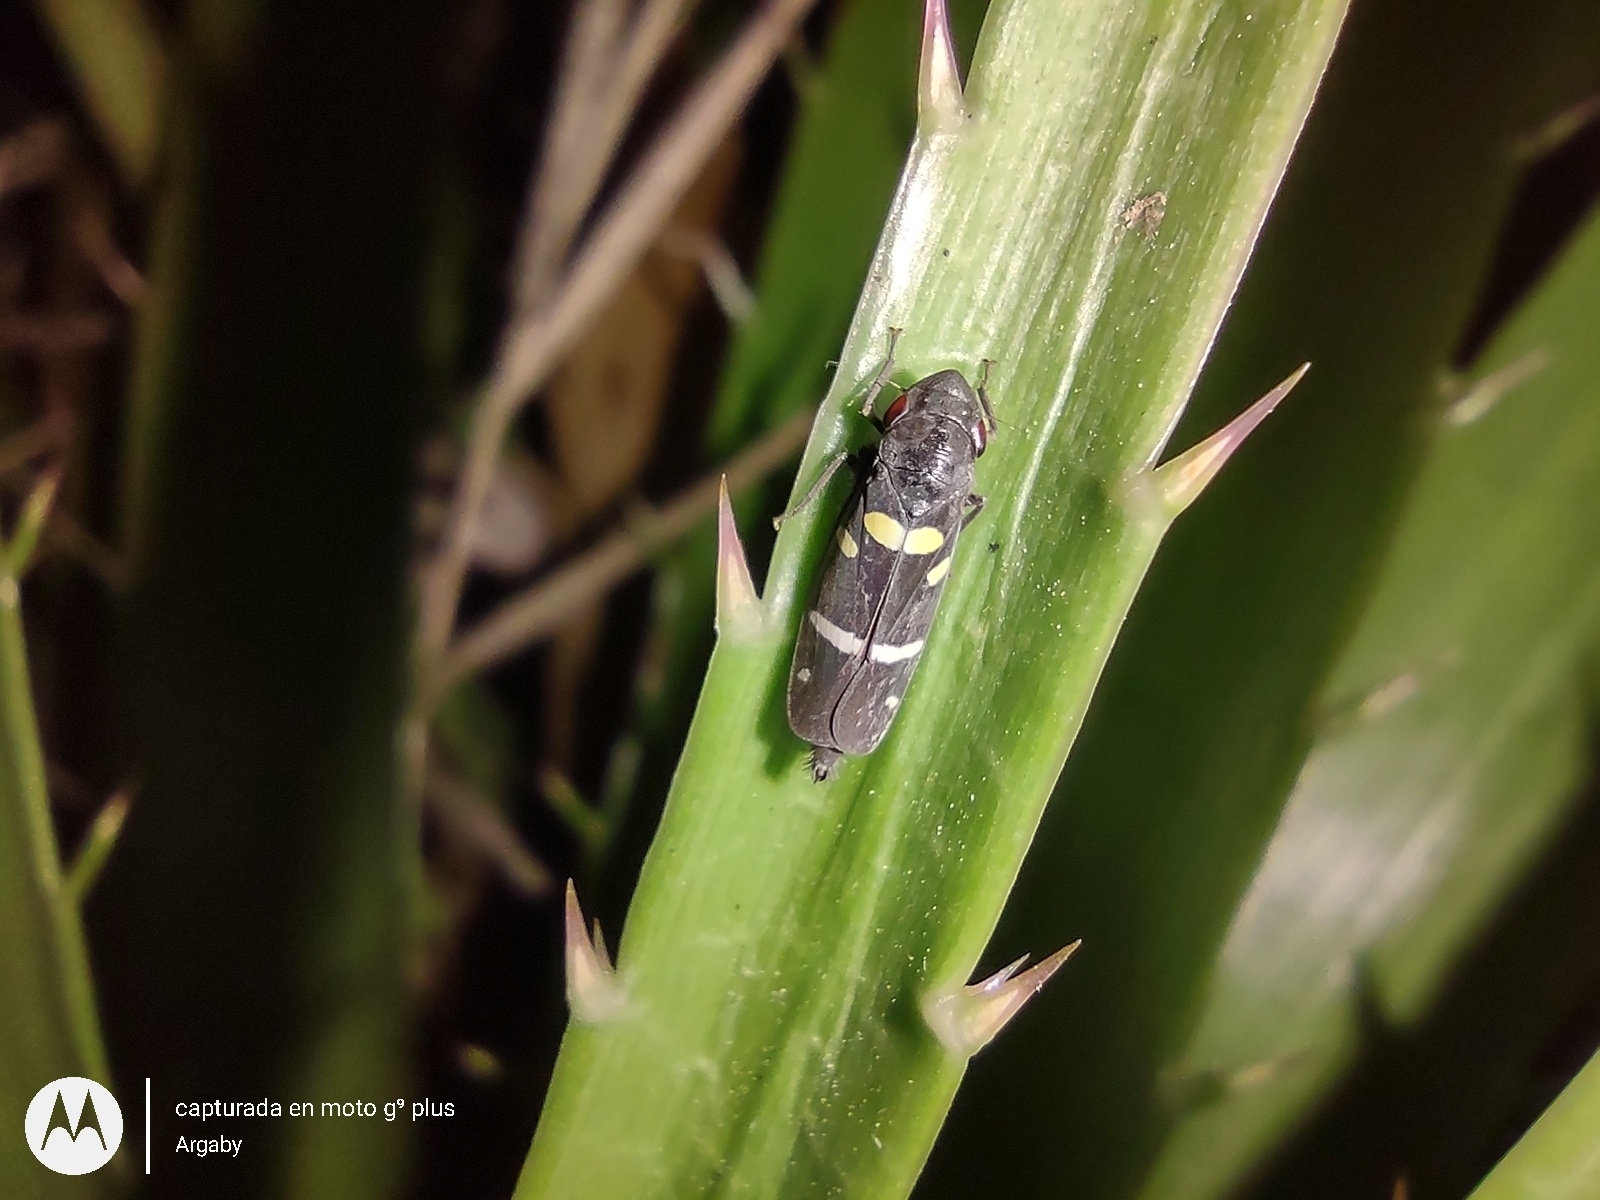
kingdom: Animalia
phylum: Arthropoda
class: Insecta
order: Hemiptera
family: Cicadellidae
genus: Balacha
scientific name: Balacha similis
